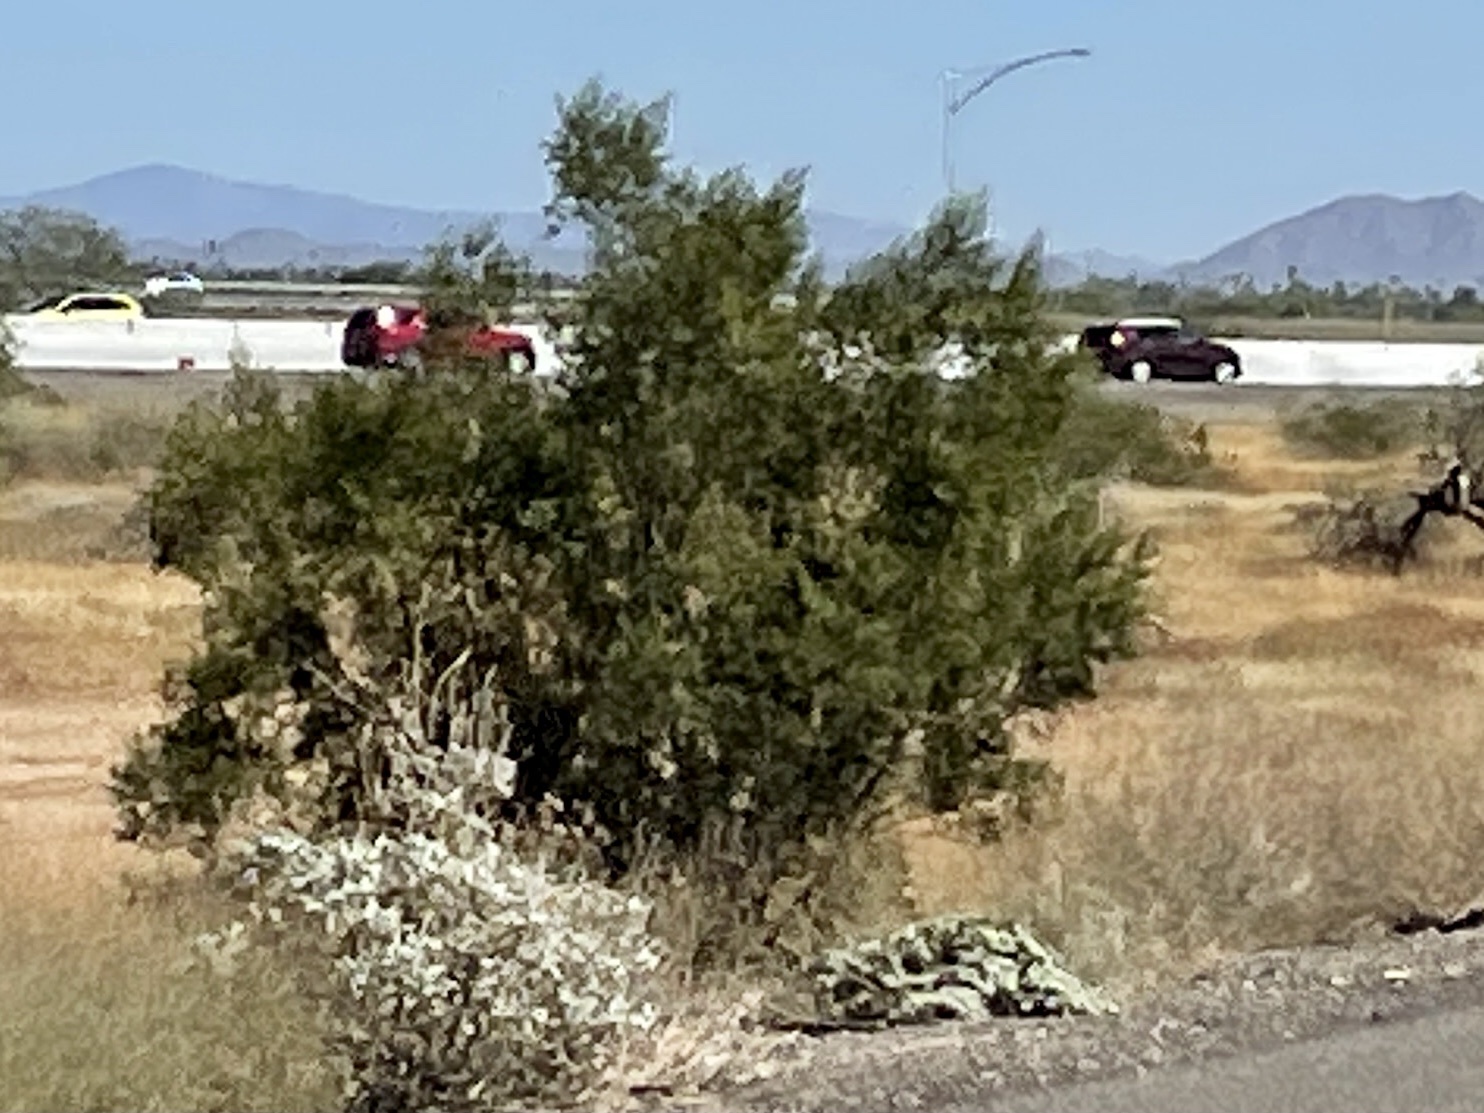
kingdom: Plantae
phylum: Tracheophyta
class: Magnoliopsida
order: Zygophyllales
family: Zygophyllaceae
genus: Larrea
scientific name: Larrea tridentata
